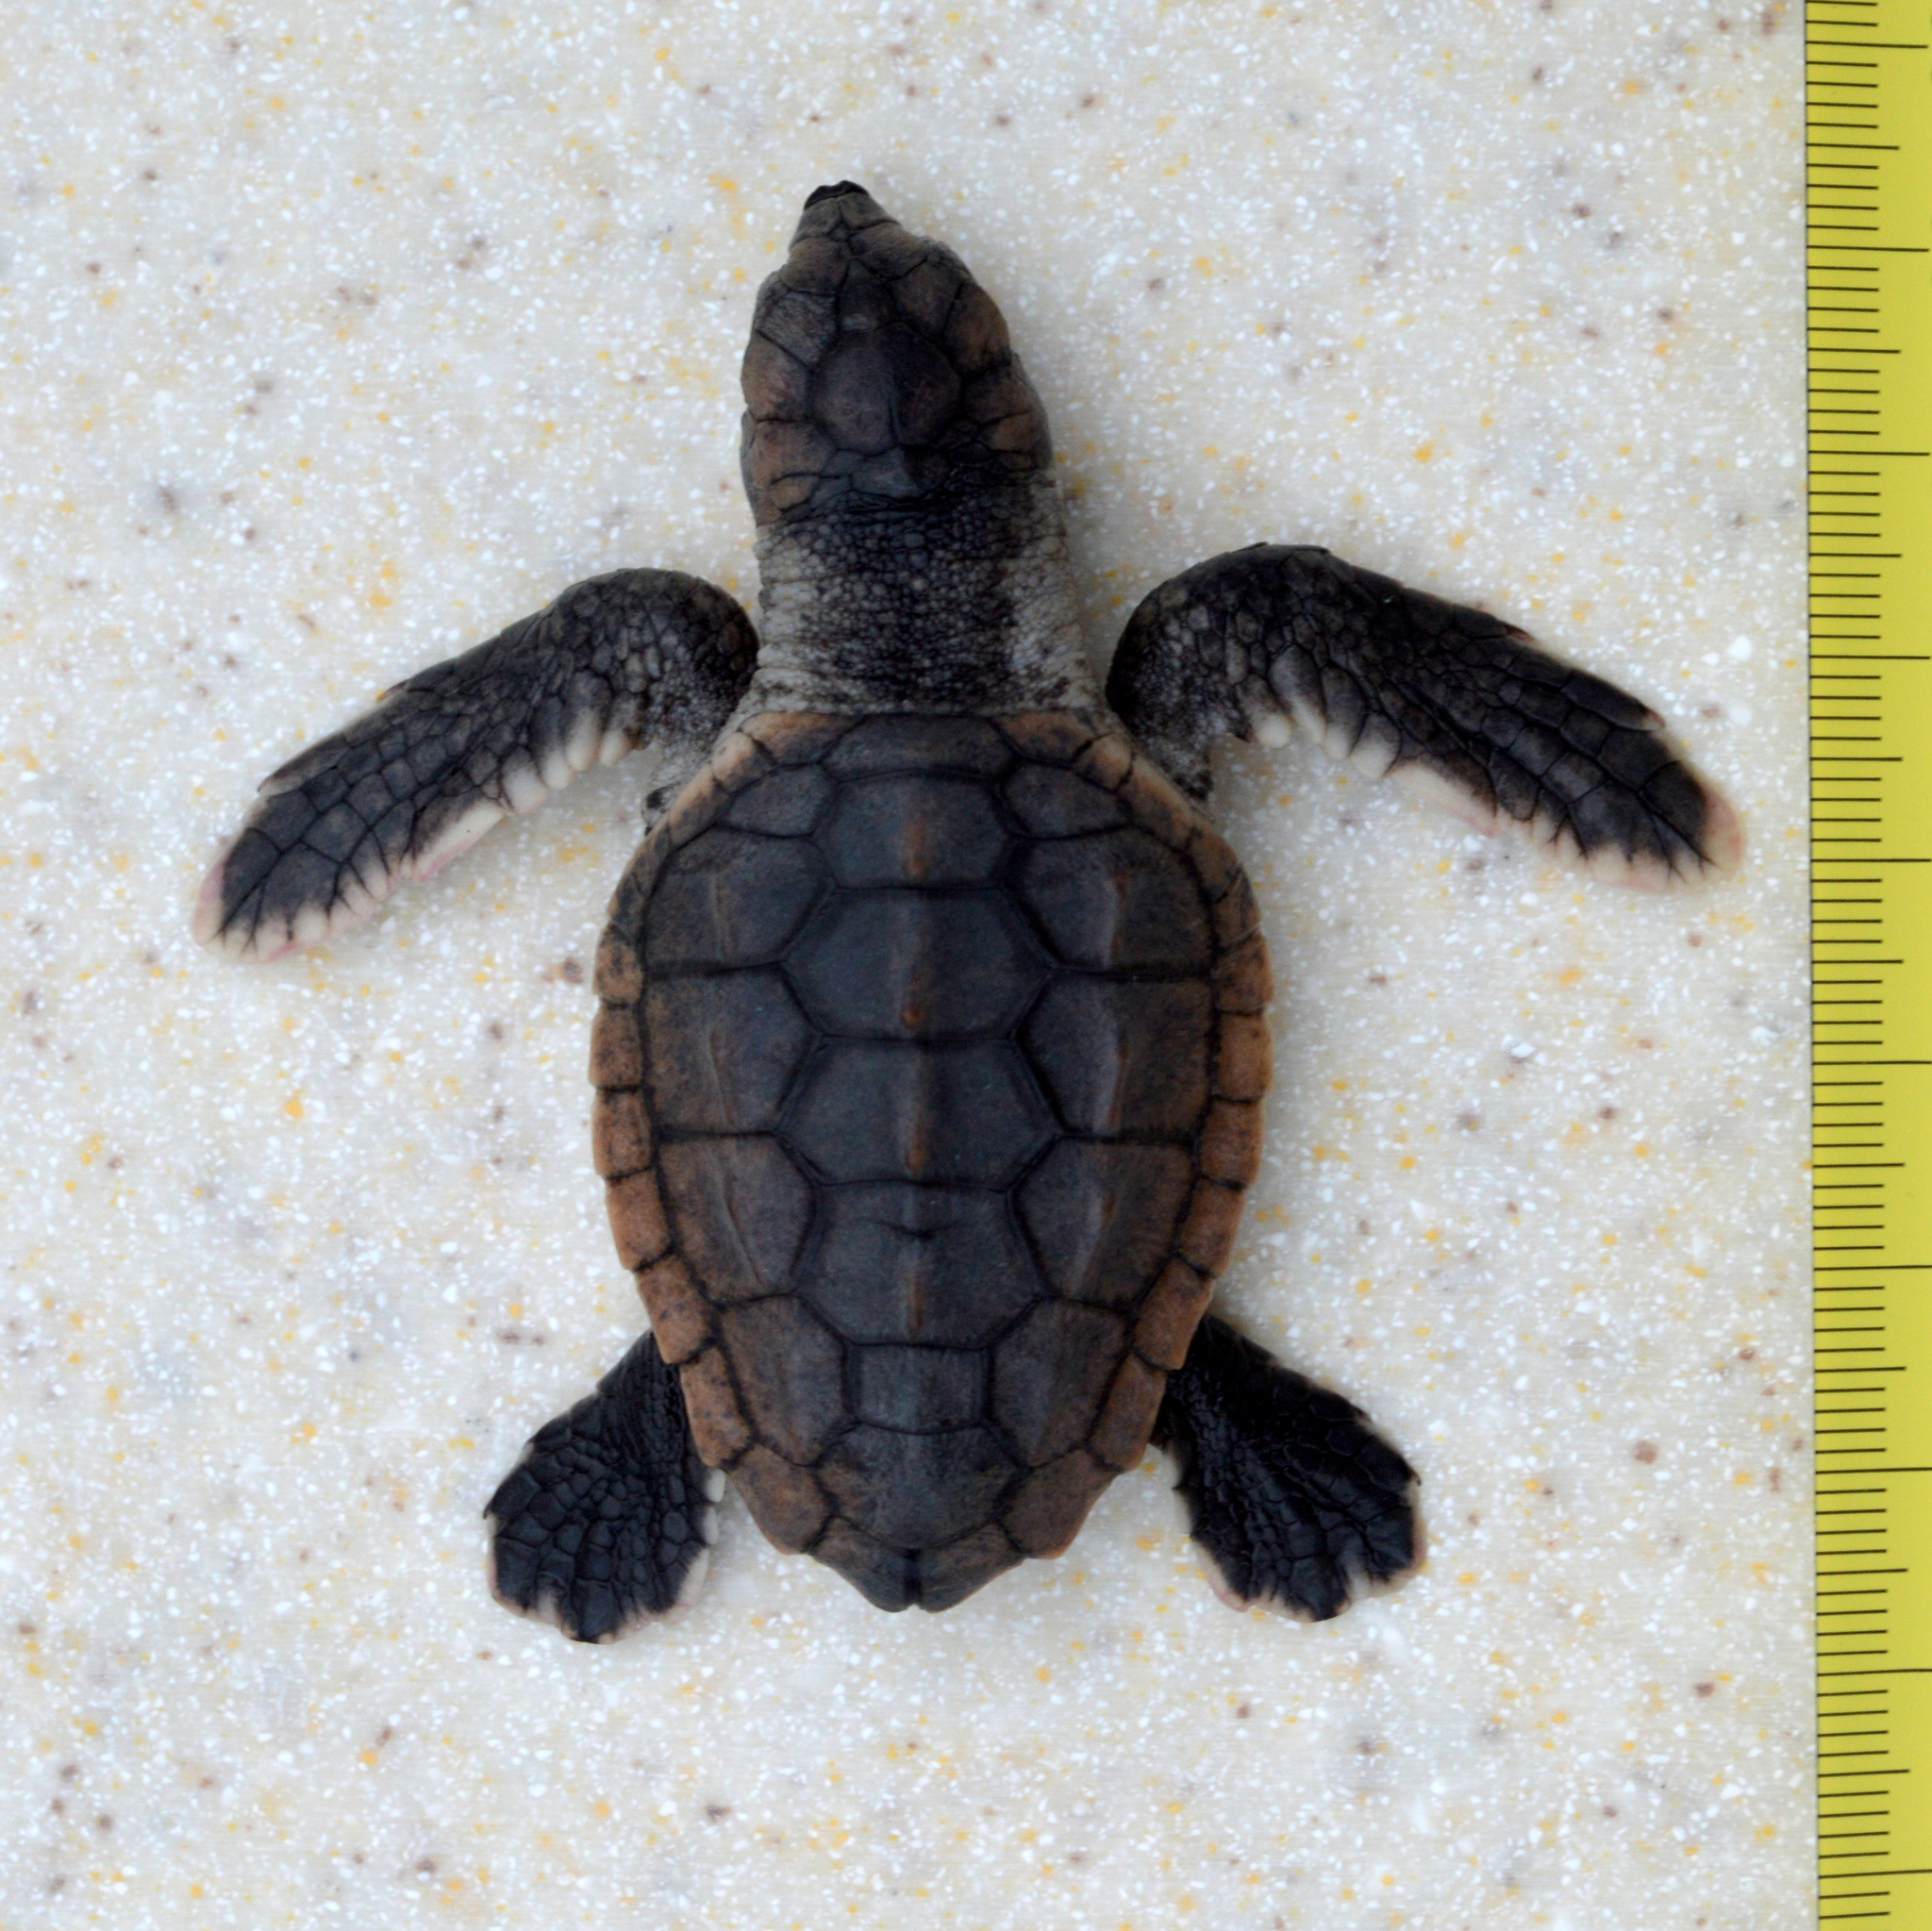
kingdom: Animalia
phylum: Chordata
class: Testudines
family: Cheloniidae
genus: Caretta
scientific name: Caretta caretta
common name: Loggerhead sea turtle
